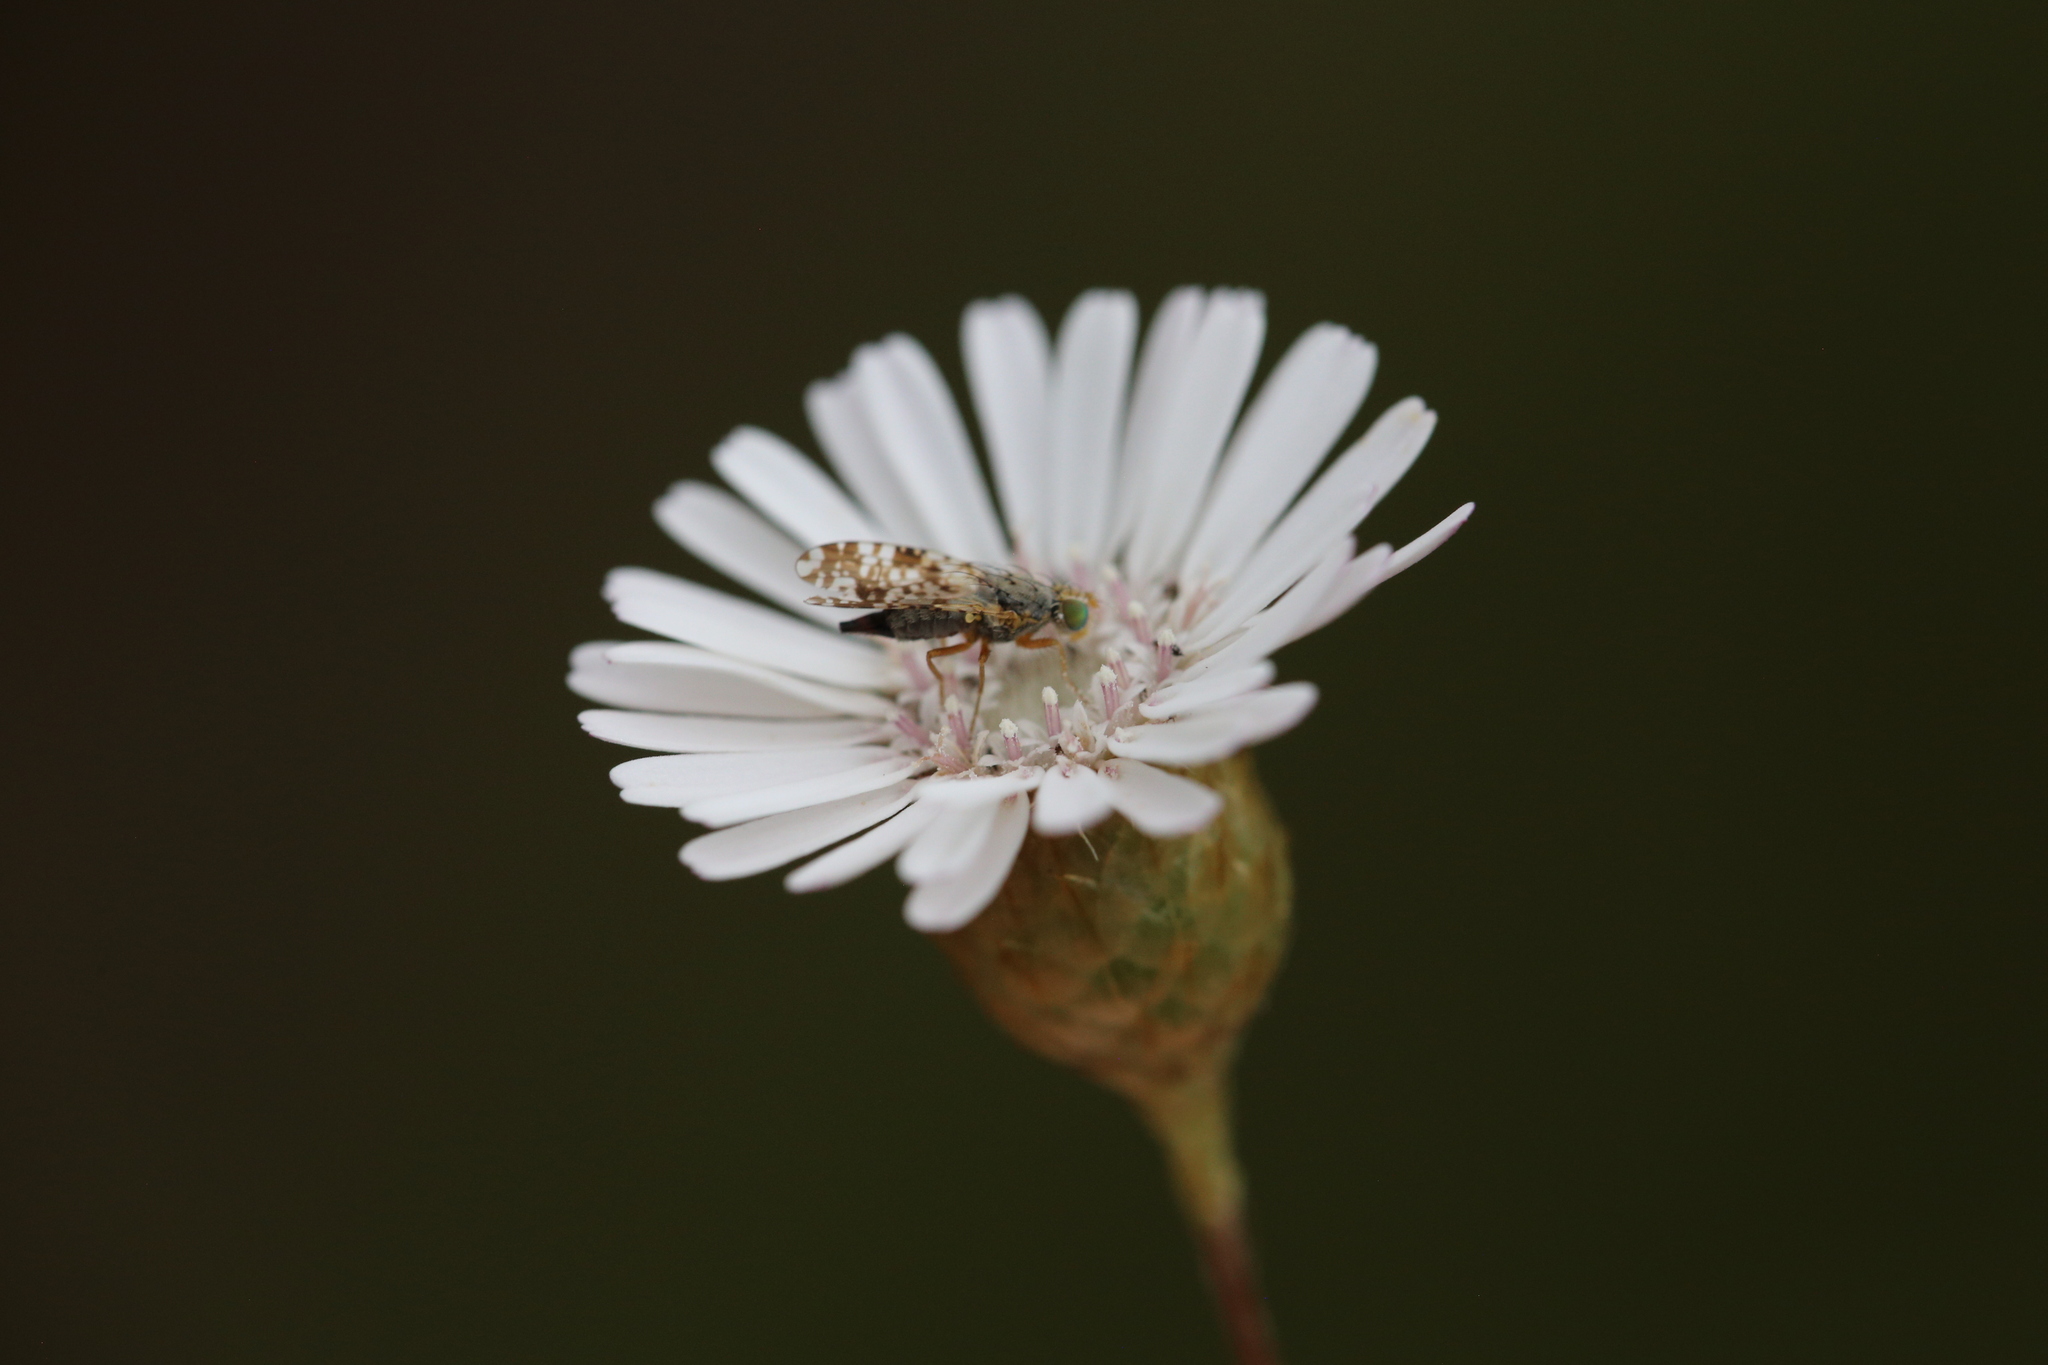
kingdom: Animalia
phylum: Arthropoda
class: Insecta
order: Diptera
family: Tephritidae
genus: Austrotephritis
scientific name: Austrotephritis
